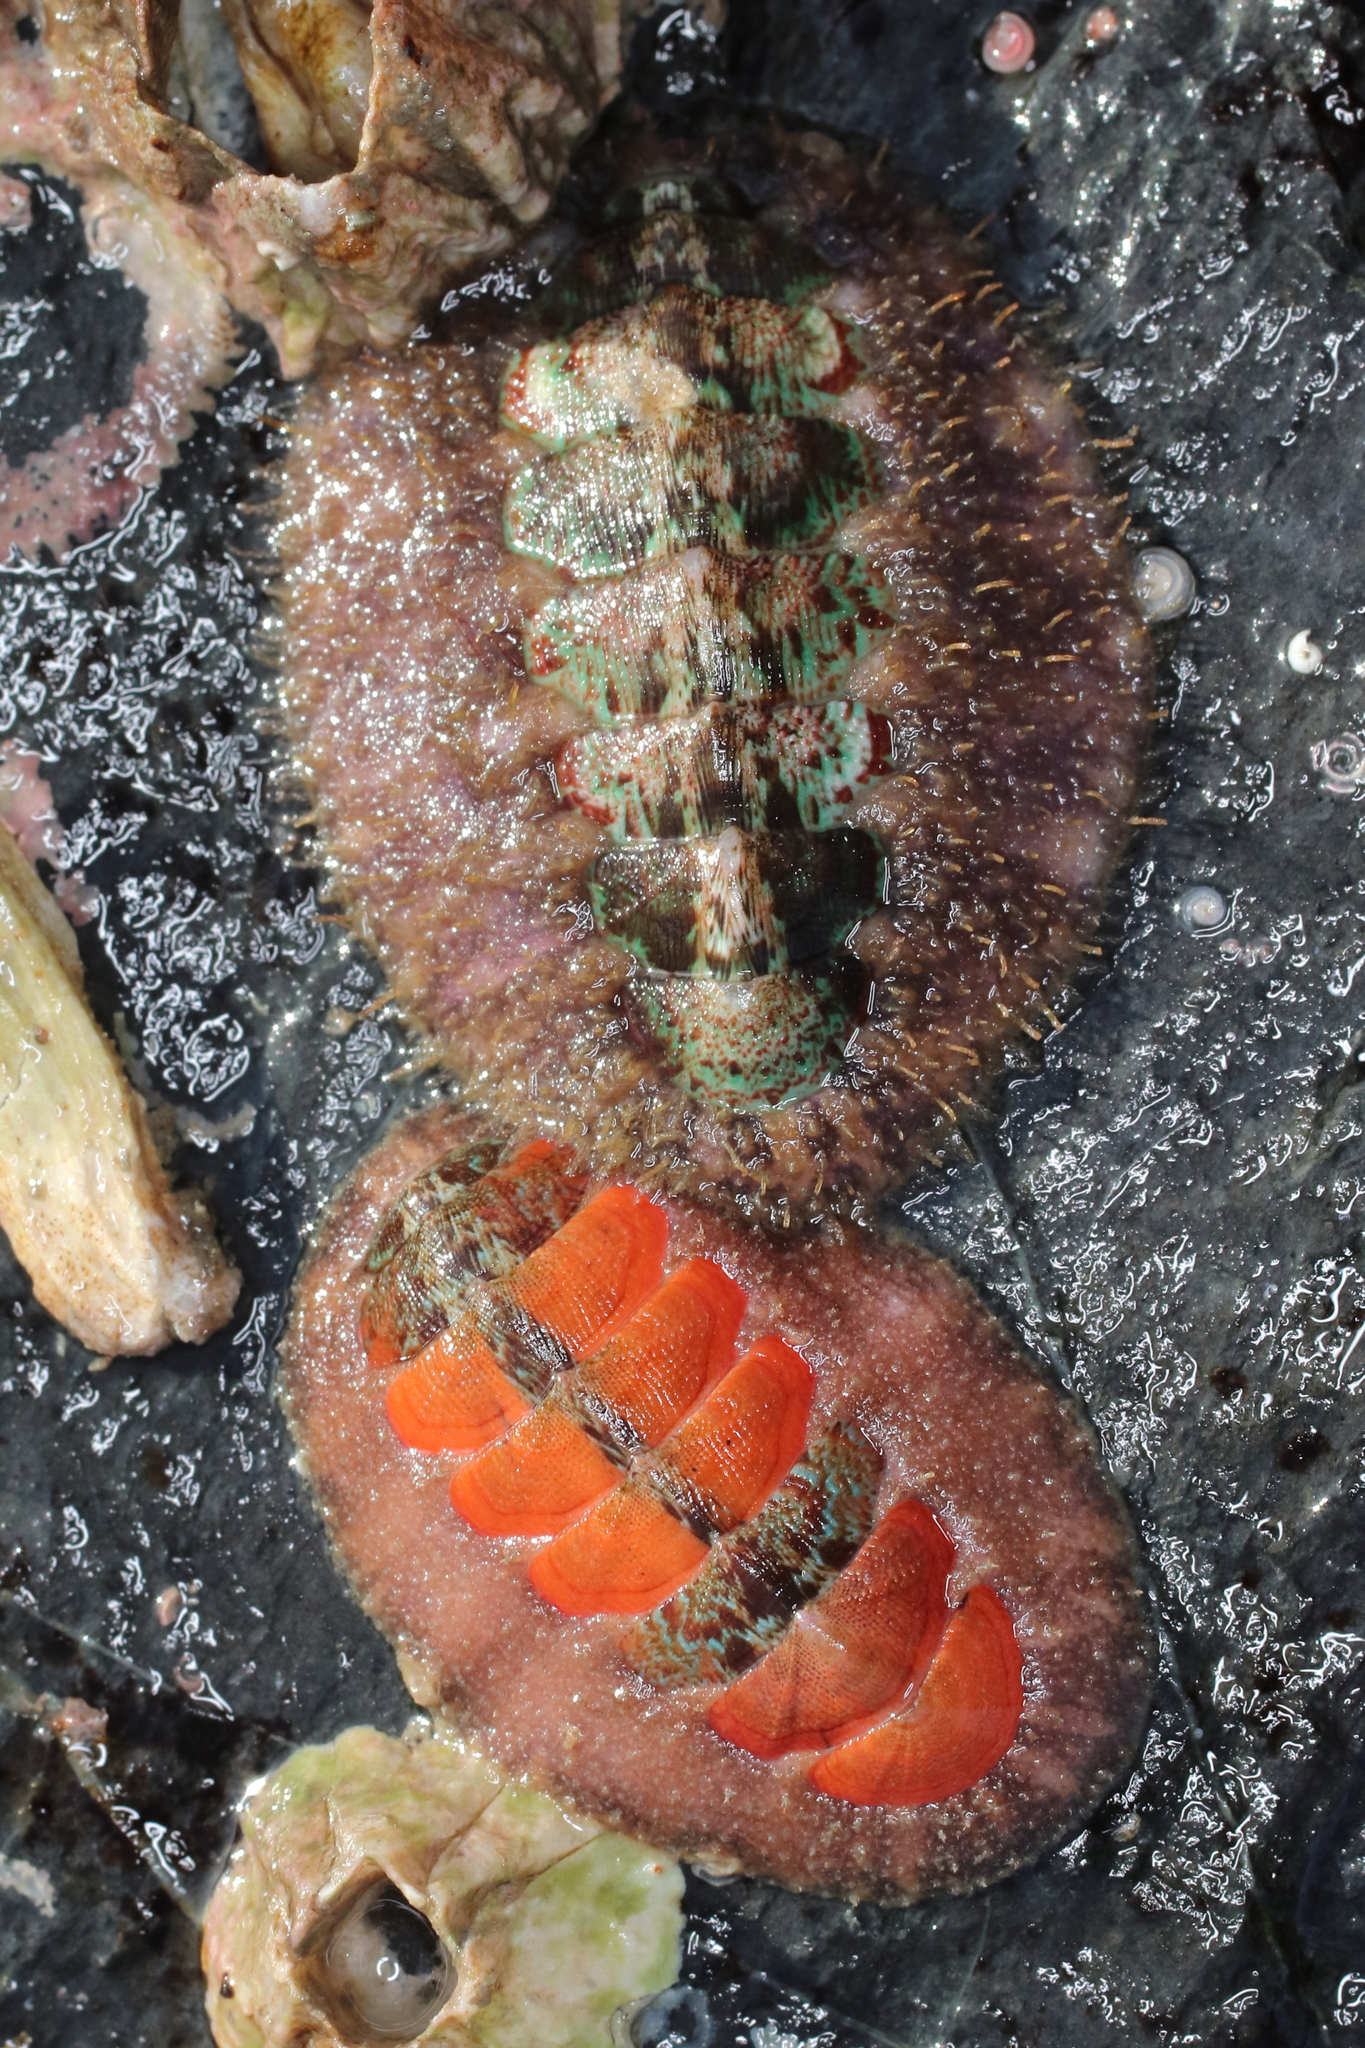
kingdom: Animalia
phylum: Mollusca
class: Polyplacophora
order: Chitonida
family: Mopaliidae
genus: Mopalia
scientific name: Mopalia swanii
